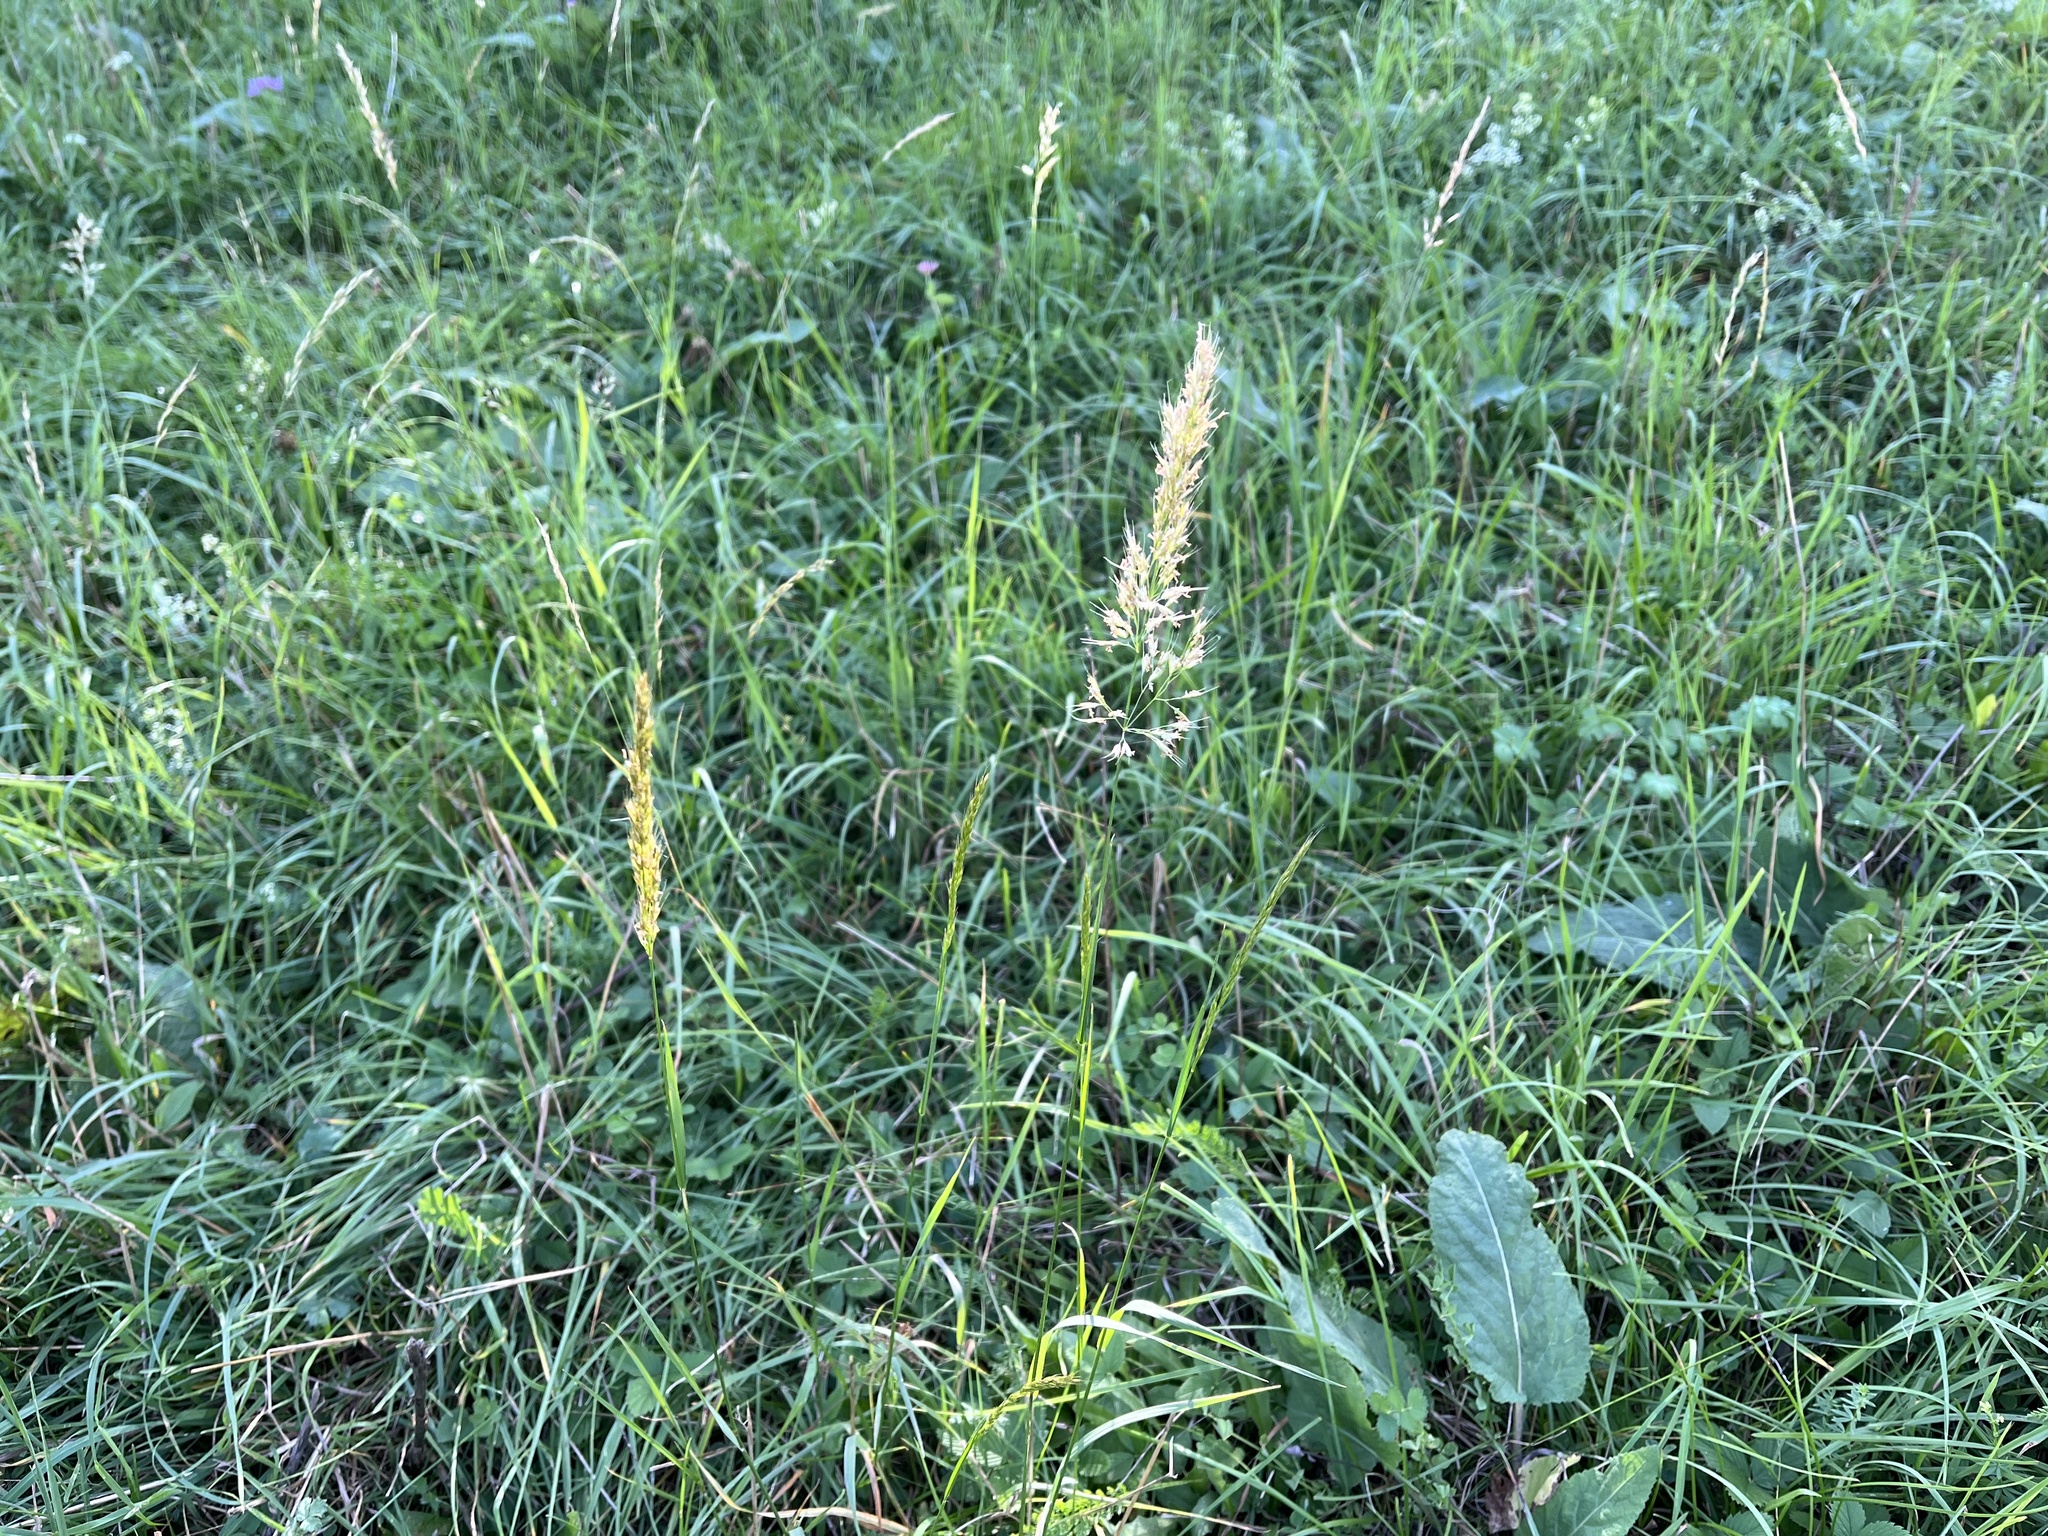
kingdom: Plantae
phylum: Tracheophyta
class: Liliopsida
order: Poales
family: Poaceae
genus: Trisetum
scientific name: Trisetum flavescens
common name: Yellow oat-grass
